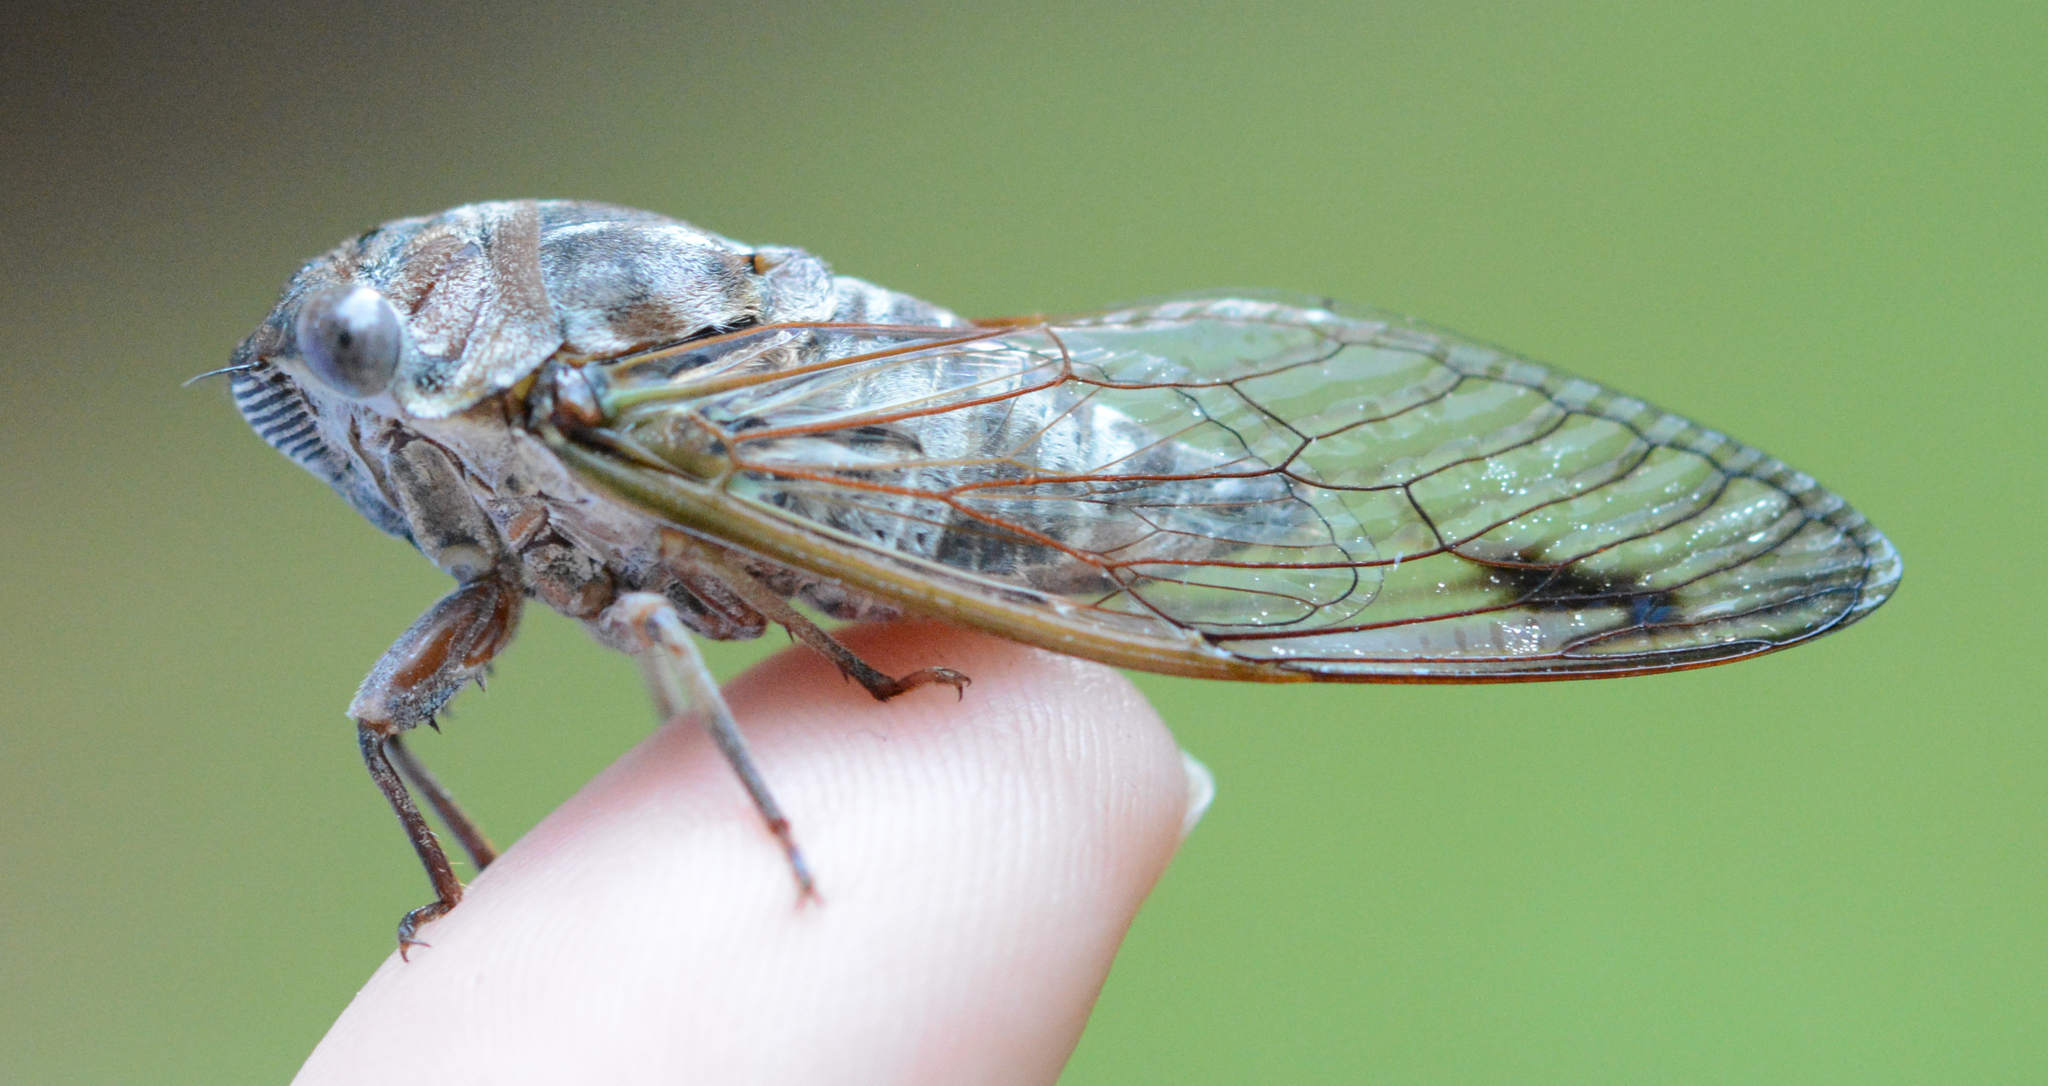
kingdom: Animalia
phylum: Arthropoda
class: Insecta
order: Hemiptera
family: Cicadidae
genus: Neotibicen
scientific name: Neotibicen davisi
